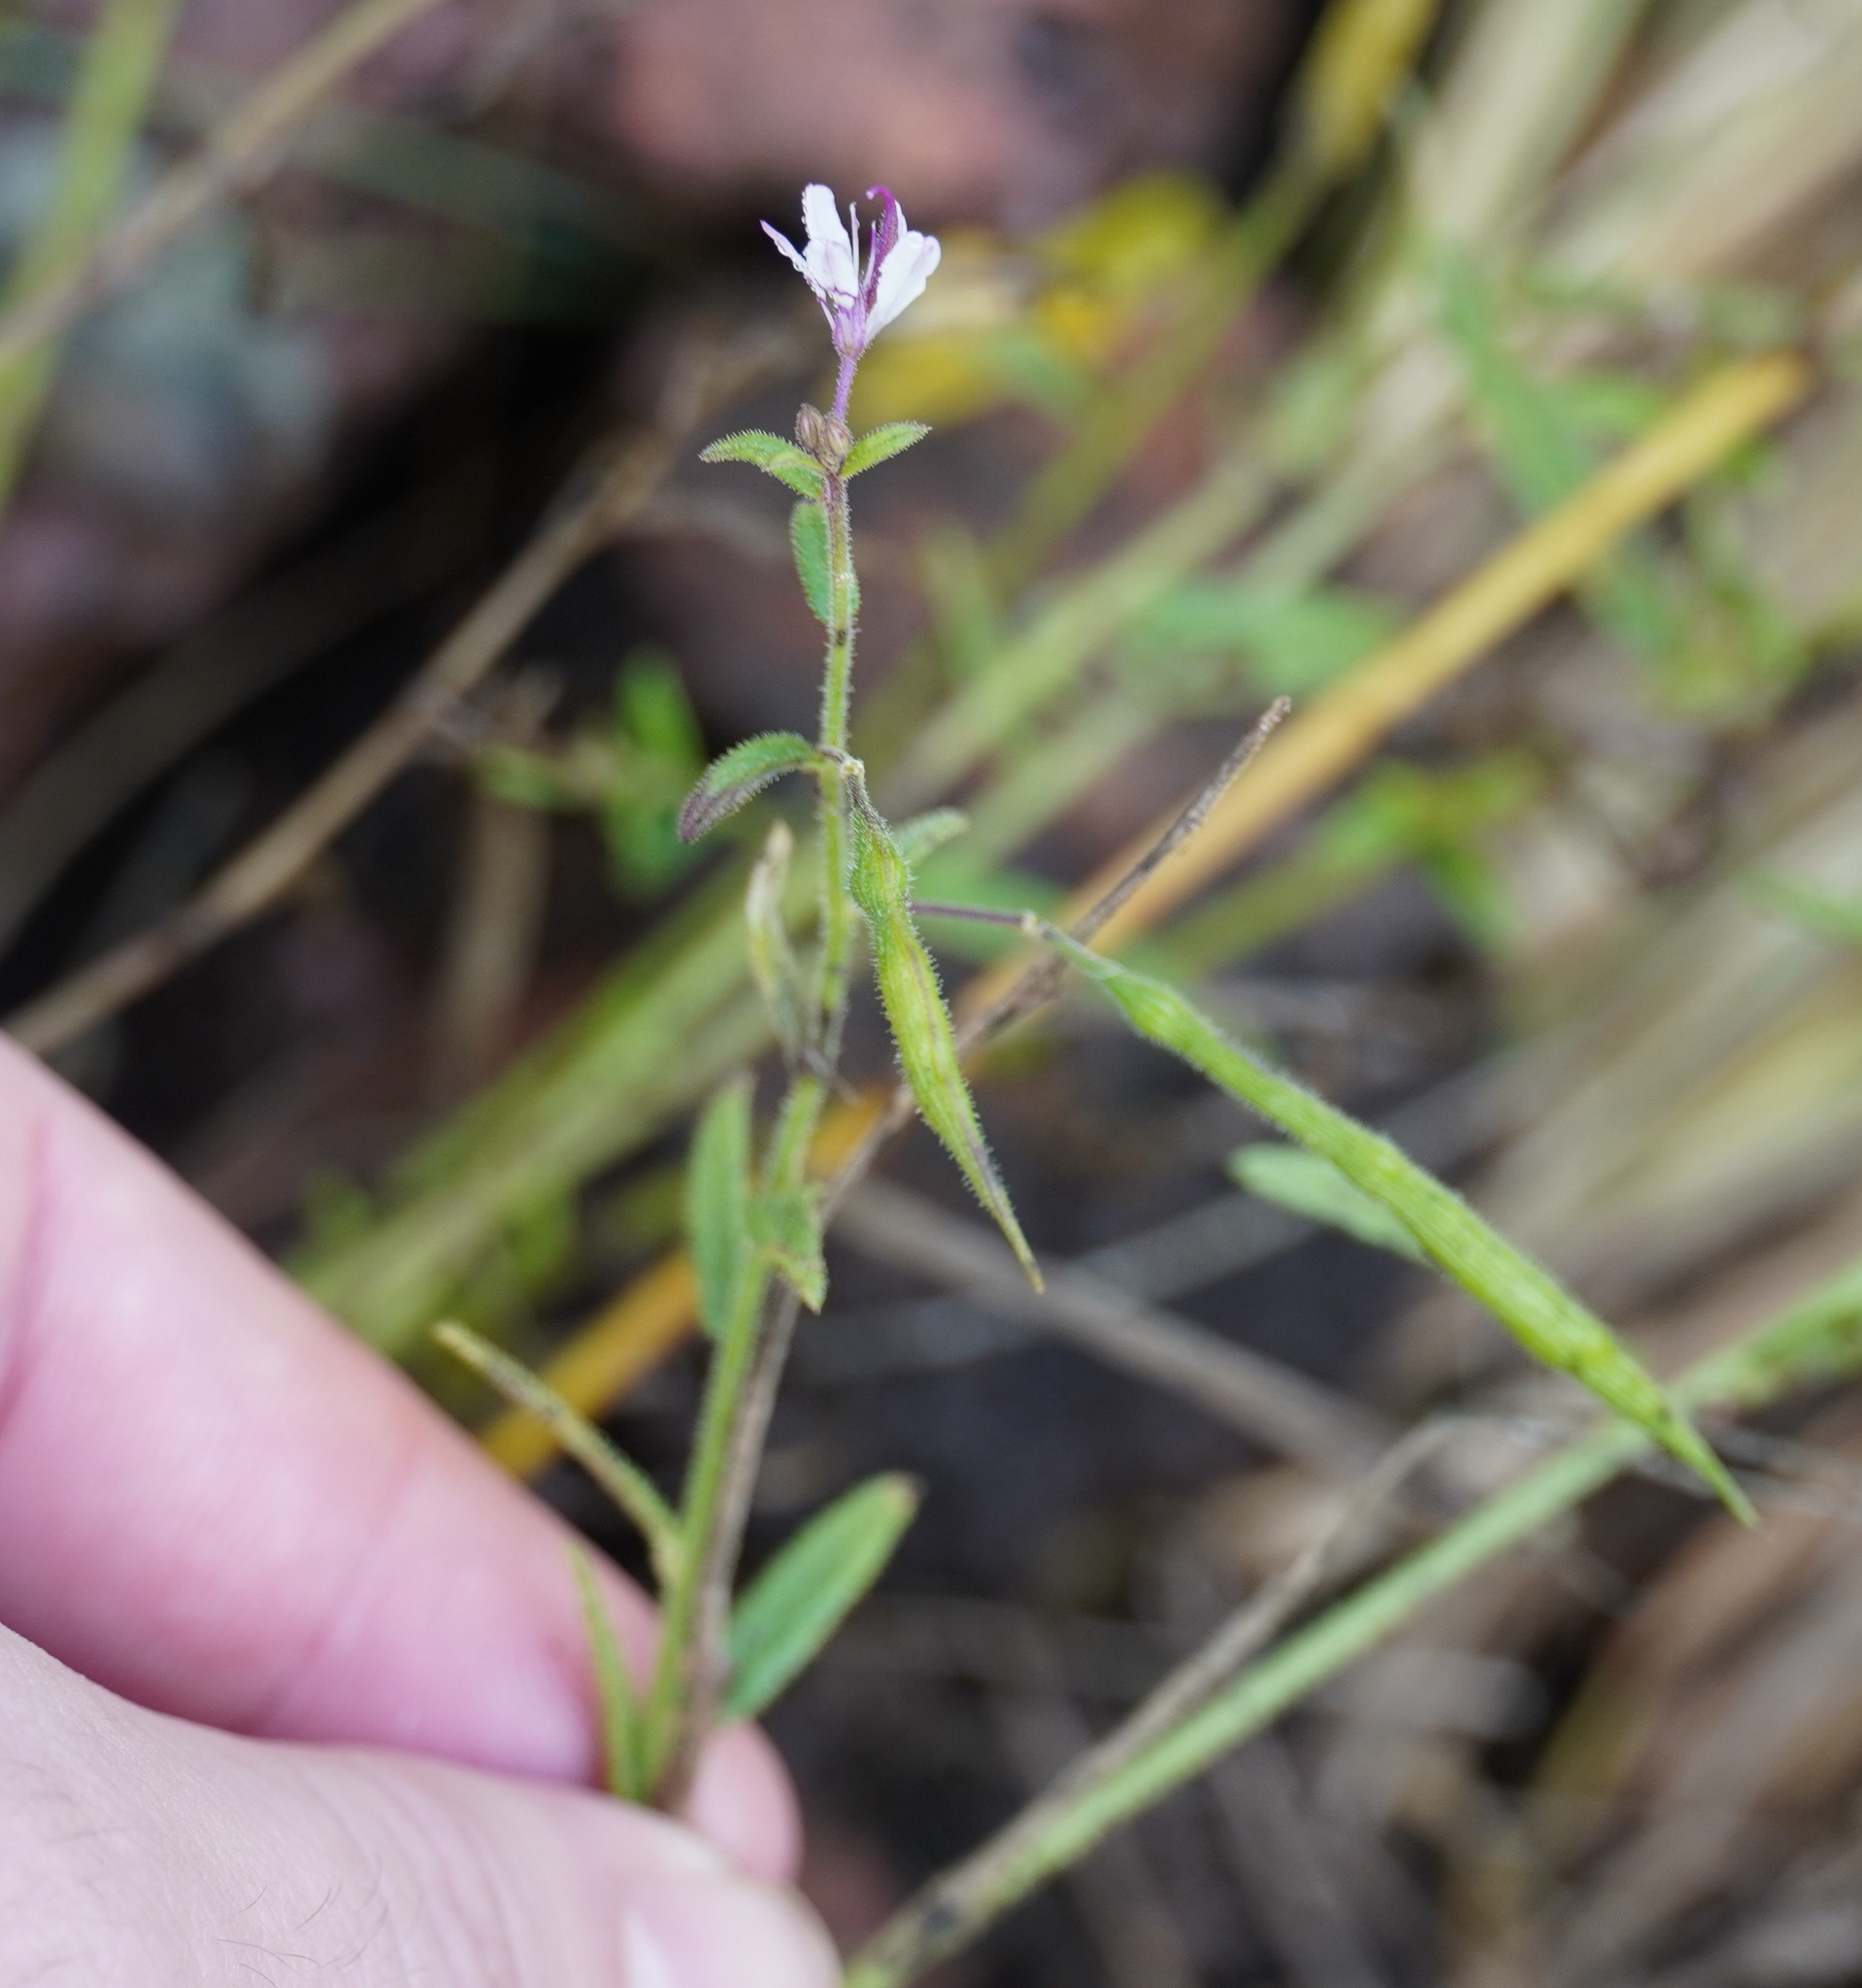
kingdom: Plantae
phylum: Tracheophyta
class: Magnoliopsida
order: Brassicales
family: Cleomaceae
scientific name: Cleomaceae
